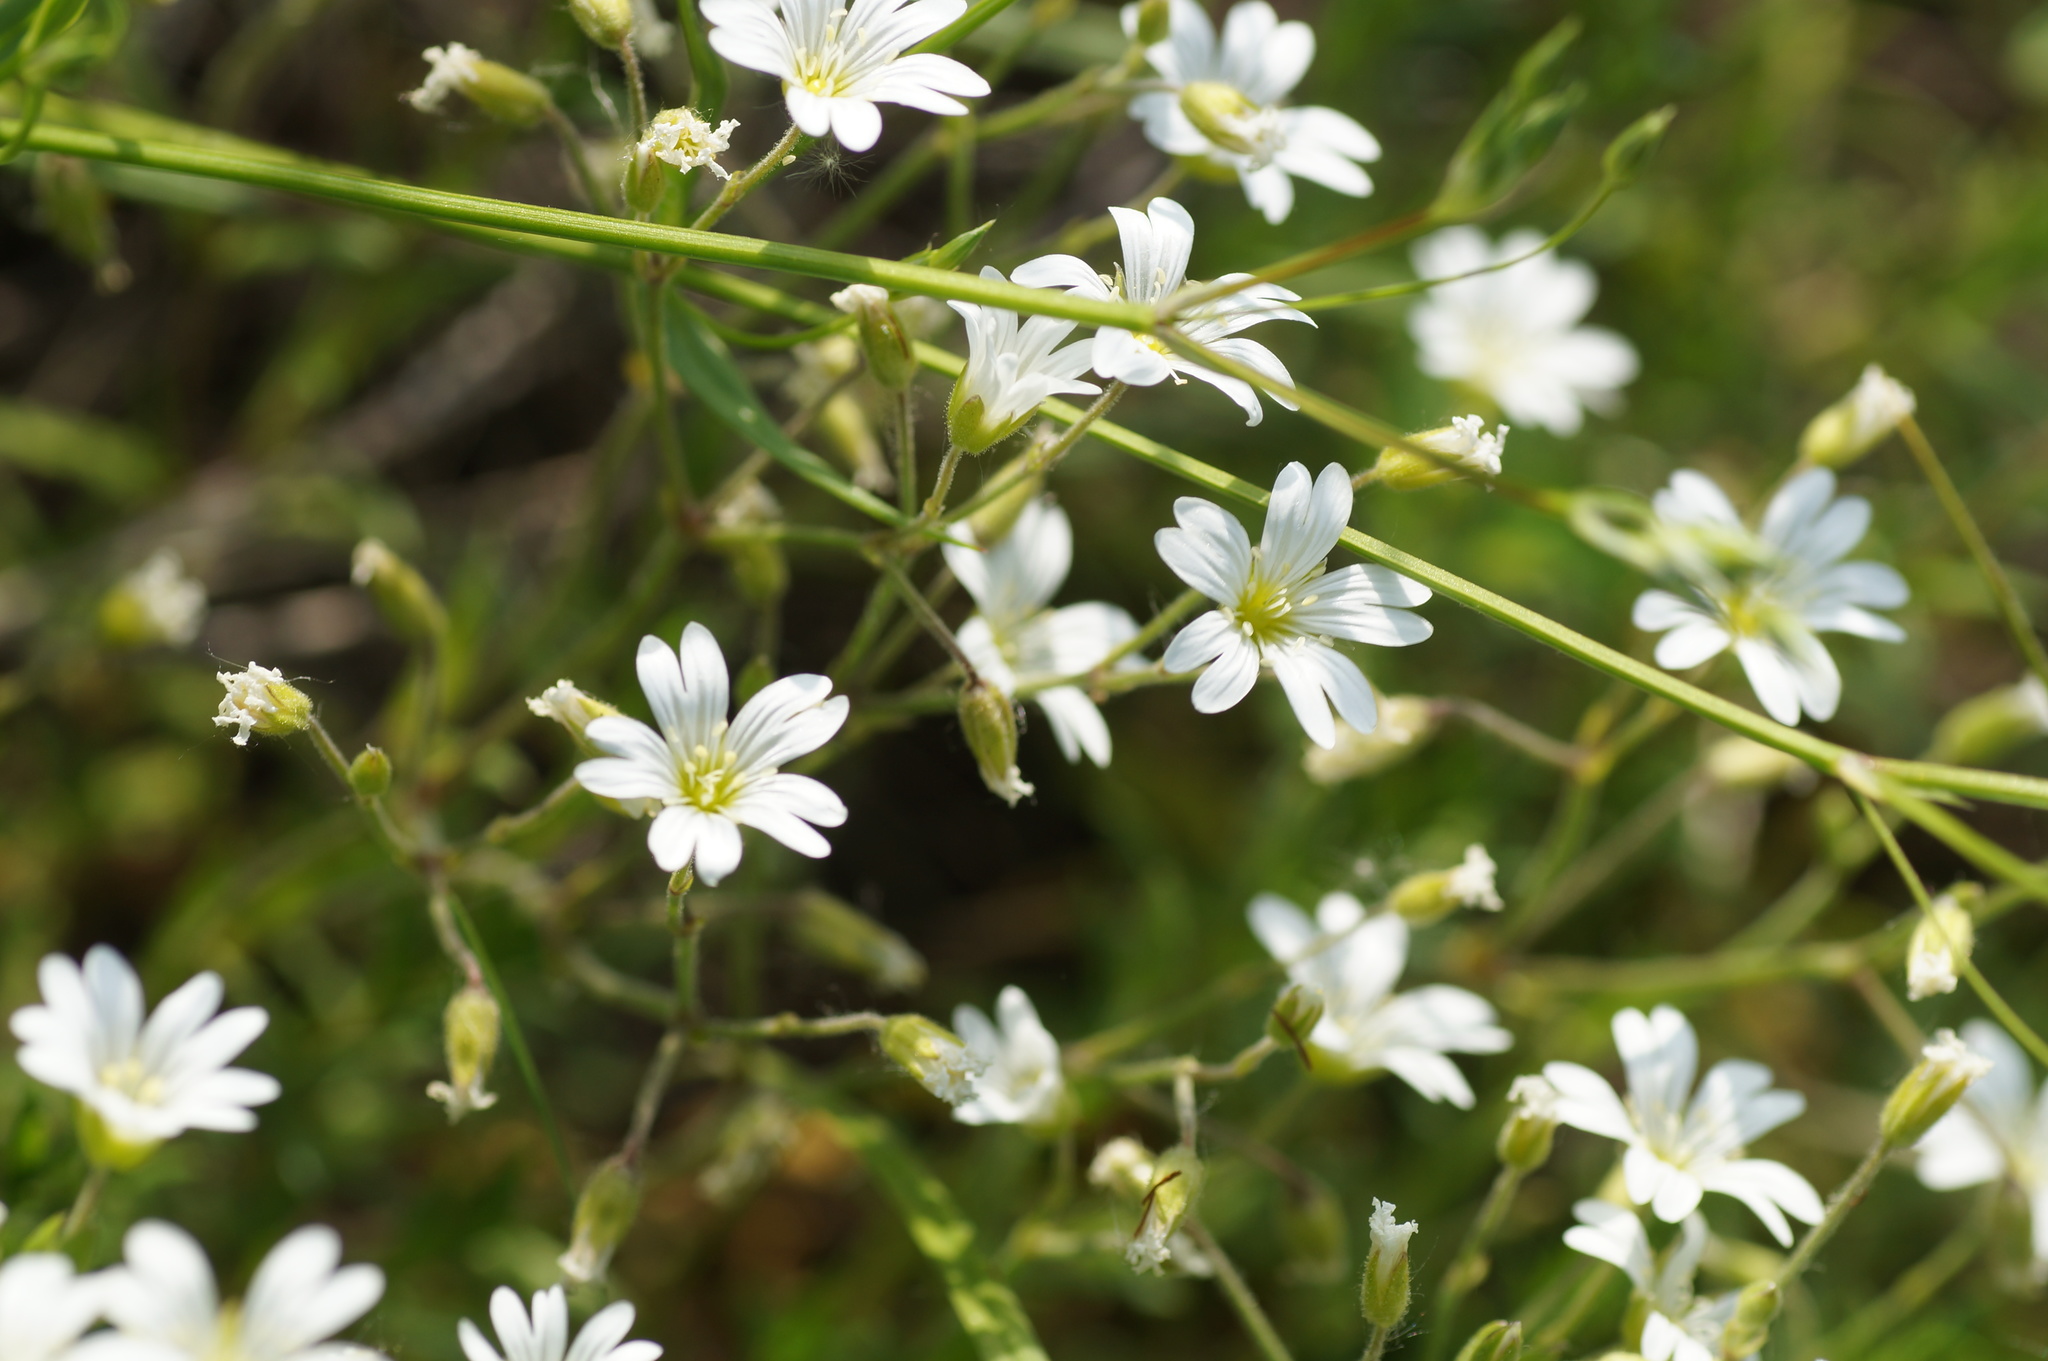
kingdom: Plantae
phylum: Tracheophyta
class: Magnoliopsida
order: Caryophyllales
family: Caryophyllaceae
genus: Cerastium
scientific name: Cerastium arvense
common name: Field mouse-ear
